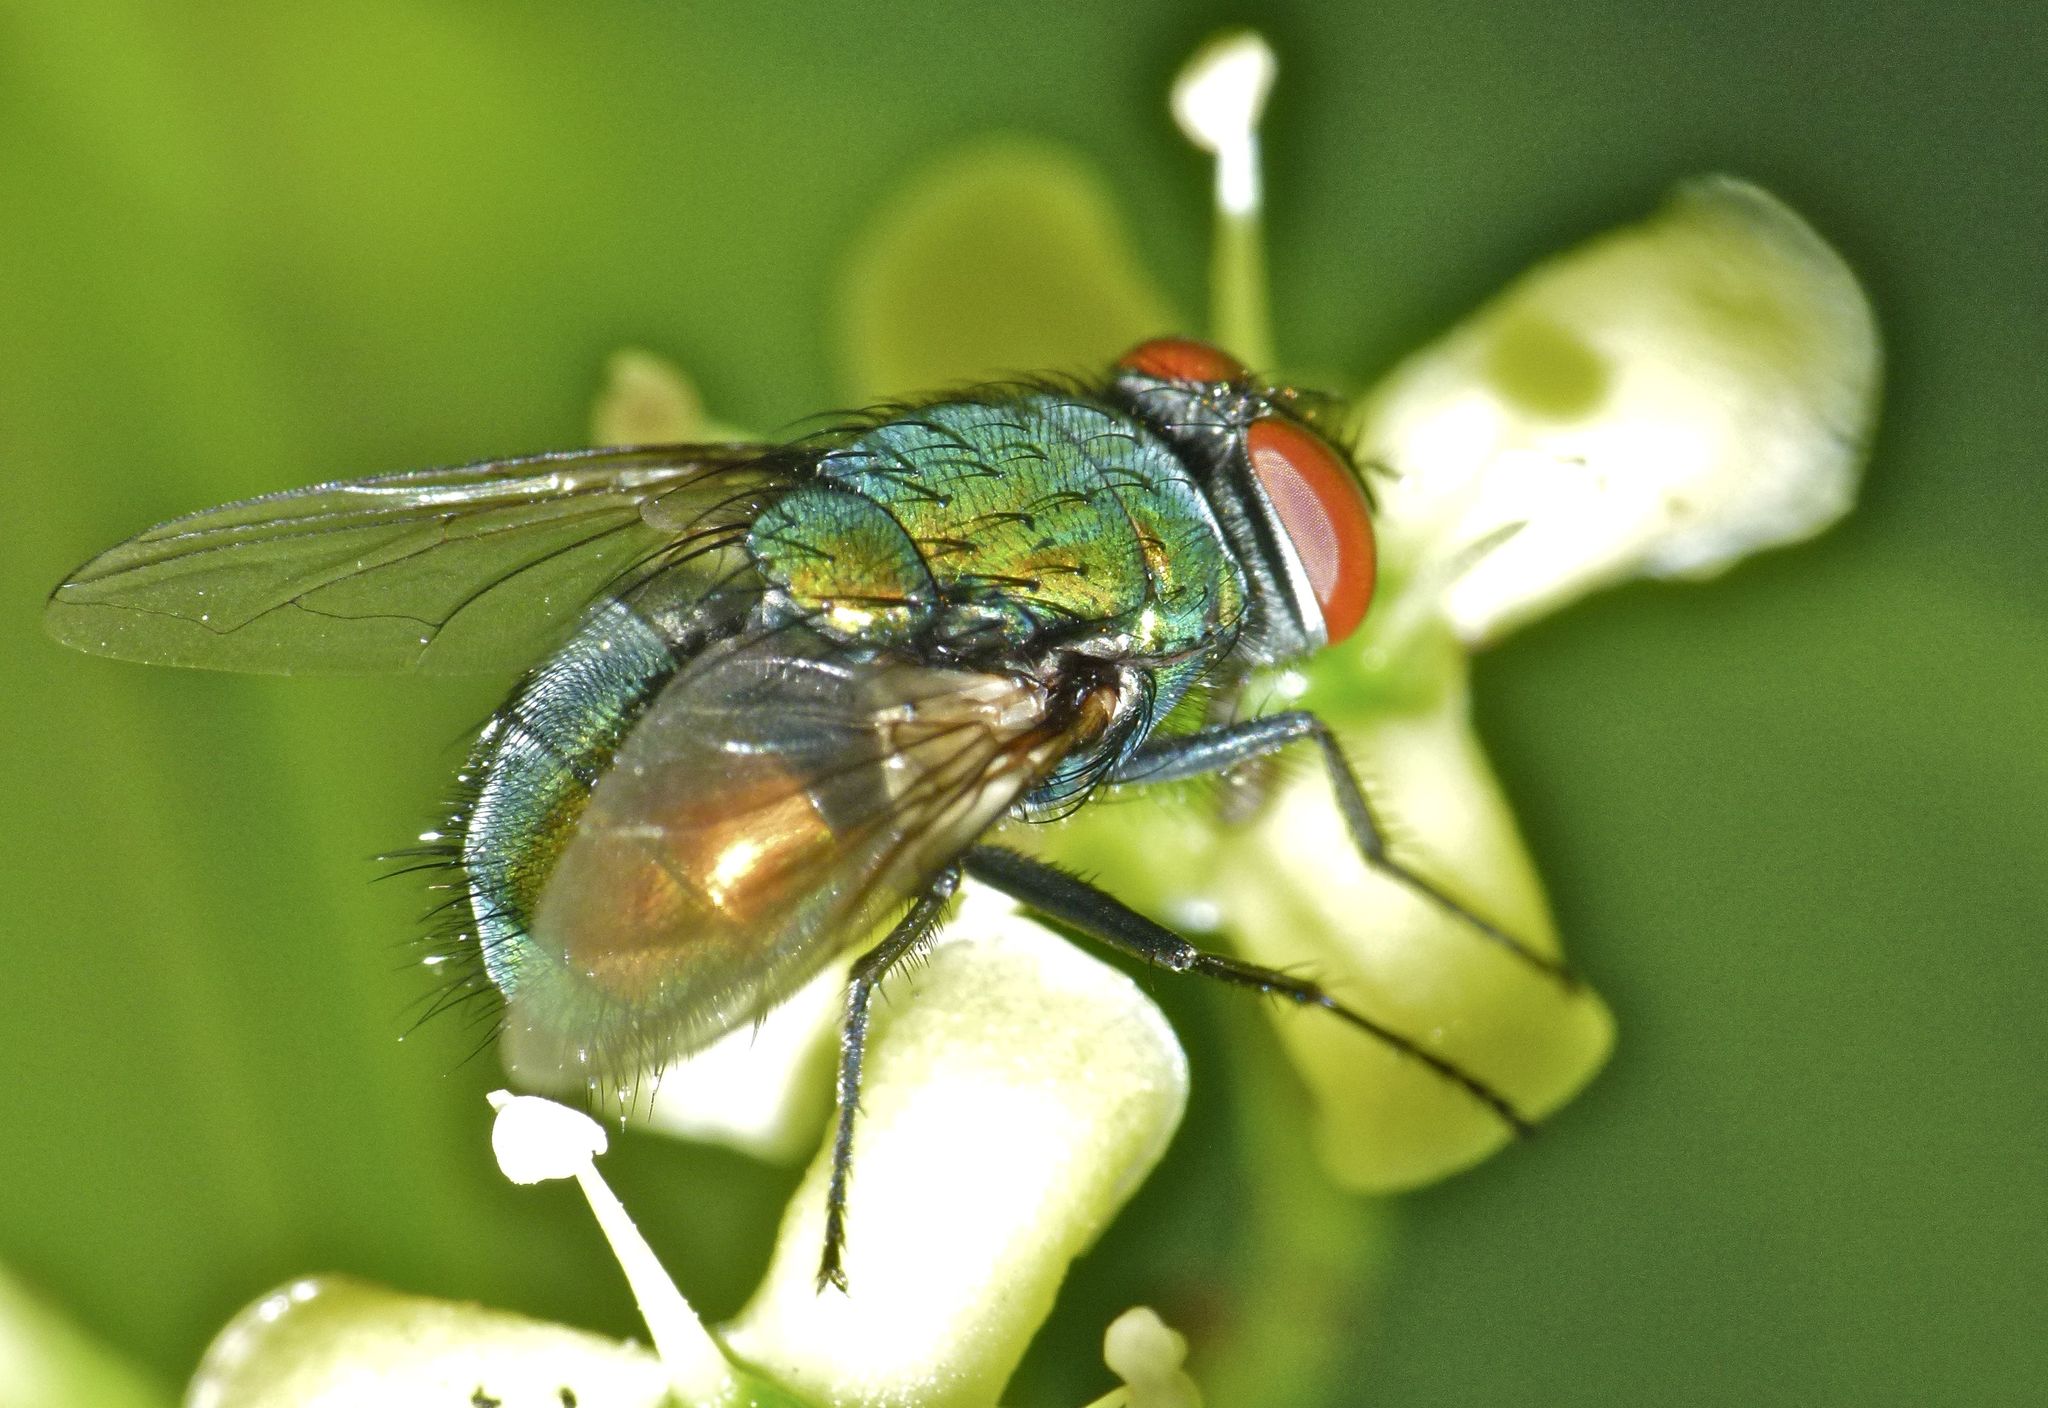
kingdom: Animalia
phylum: Arthropoda
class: Insecta
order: Diptera
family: Calliphoridae
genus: Lucilia
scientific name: Lucilia sericata
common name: Blow fly
